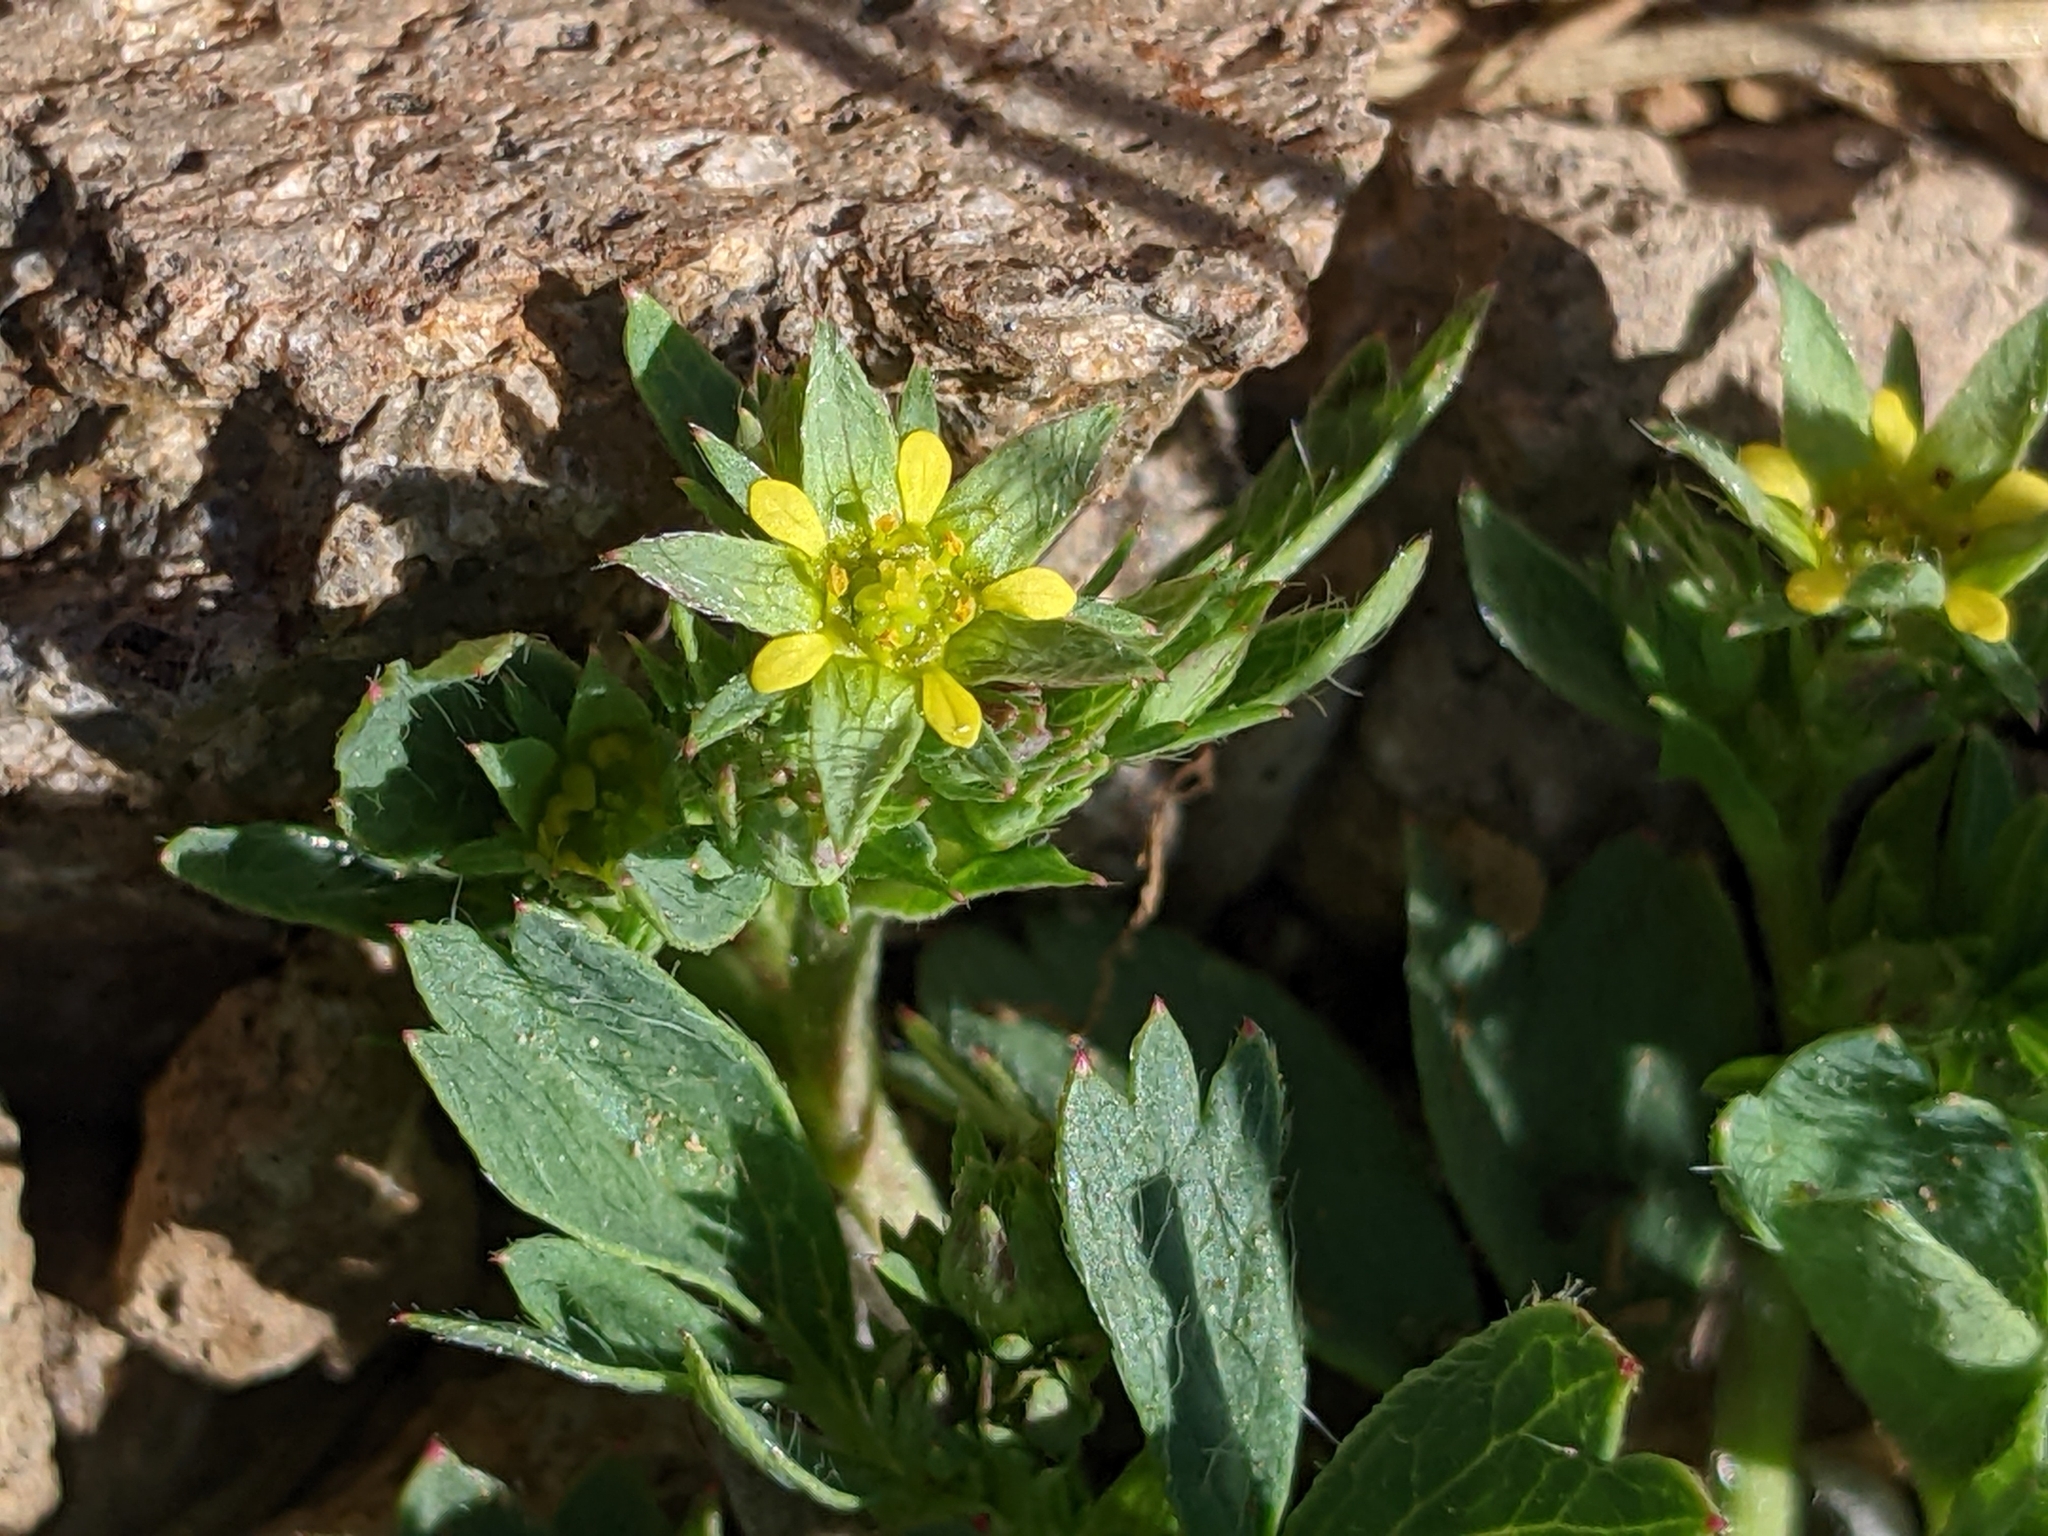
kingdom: Plantae
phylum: Tracheophyta
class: Magnoliopsida
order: Rosales
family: Rosaceae
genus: Sibbaldia
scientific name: Sibbaldia procumbens
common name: Creeping sibbaldia
